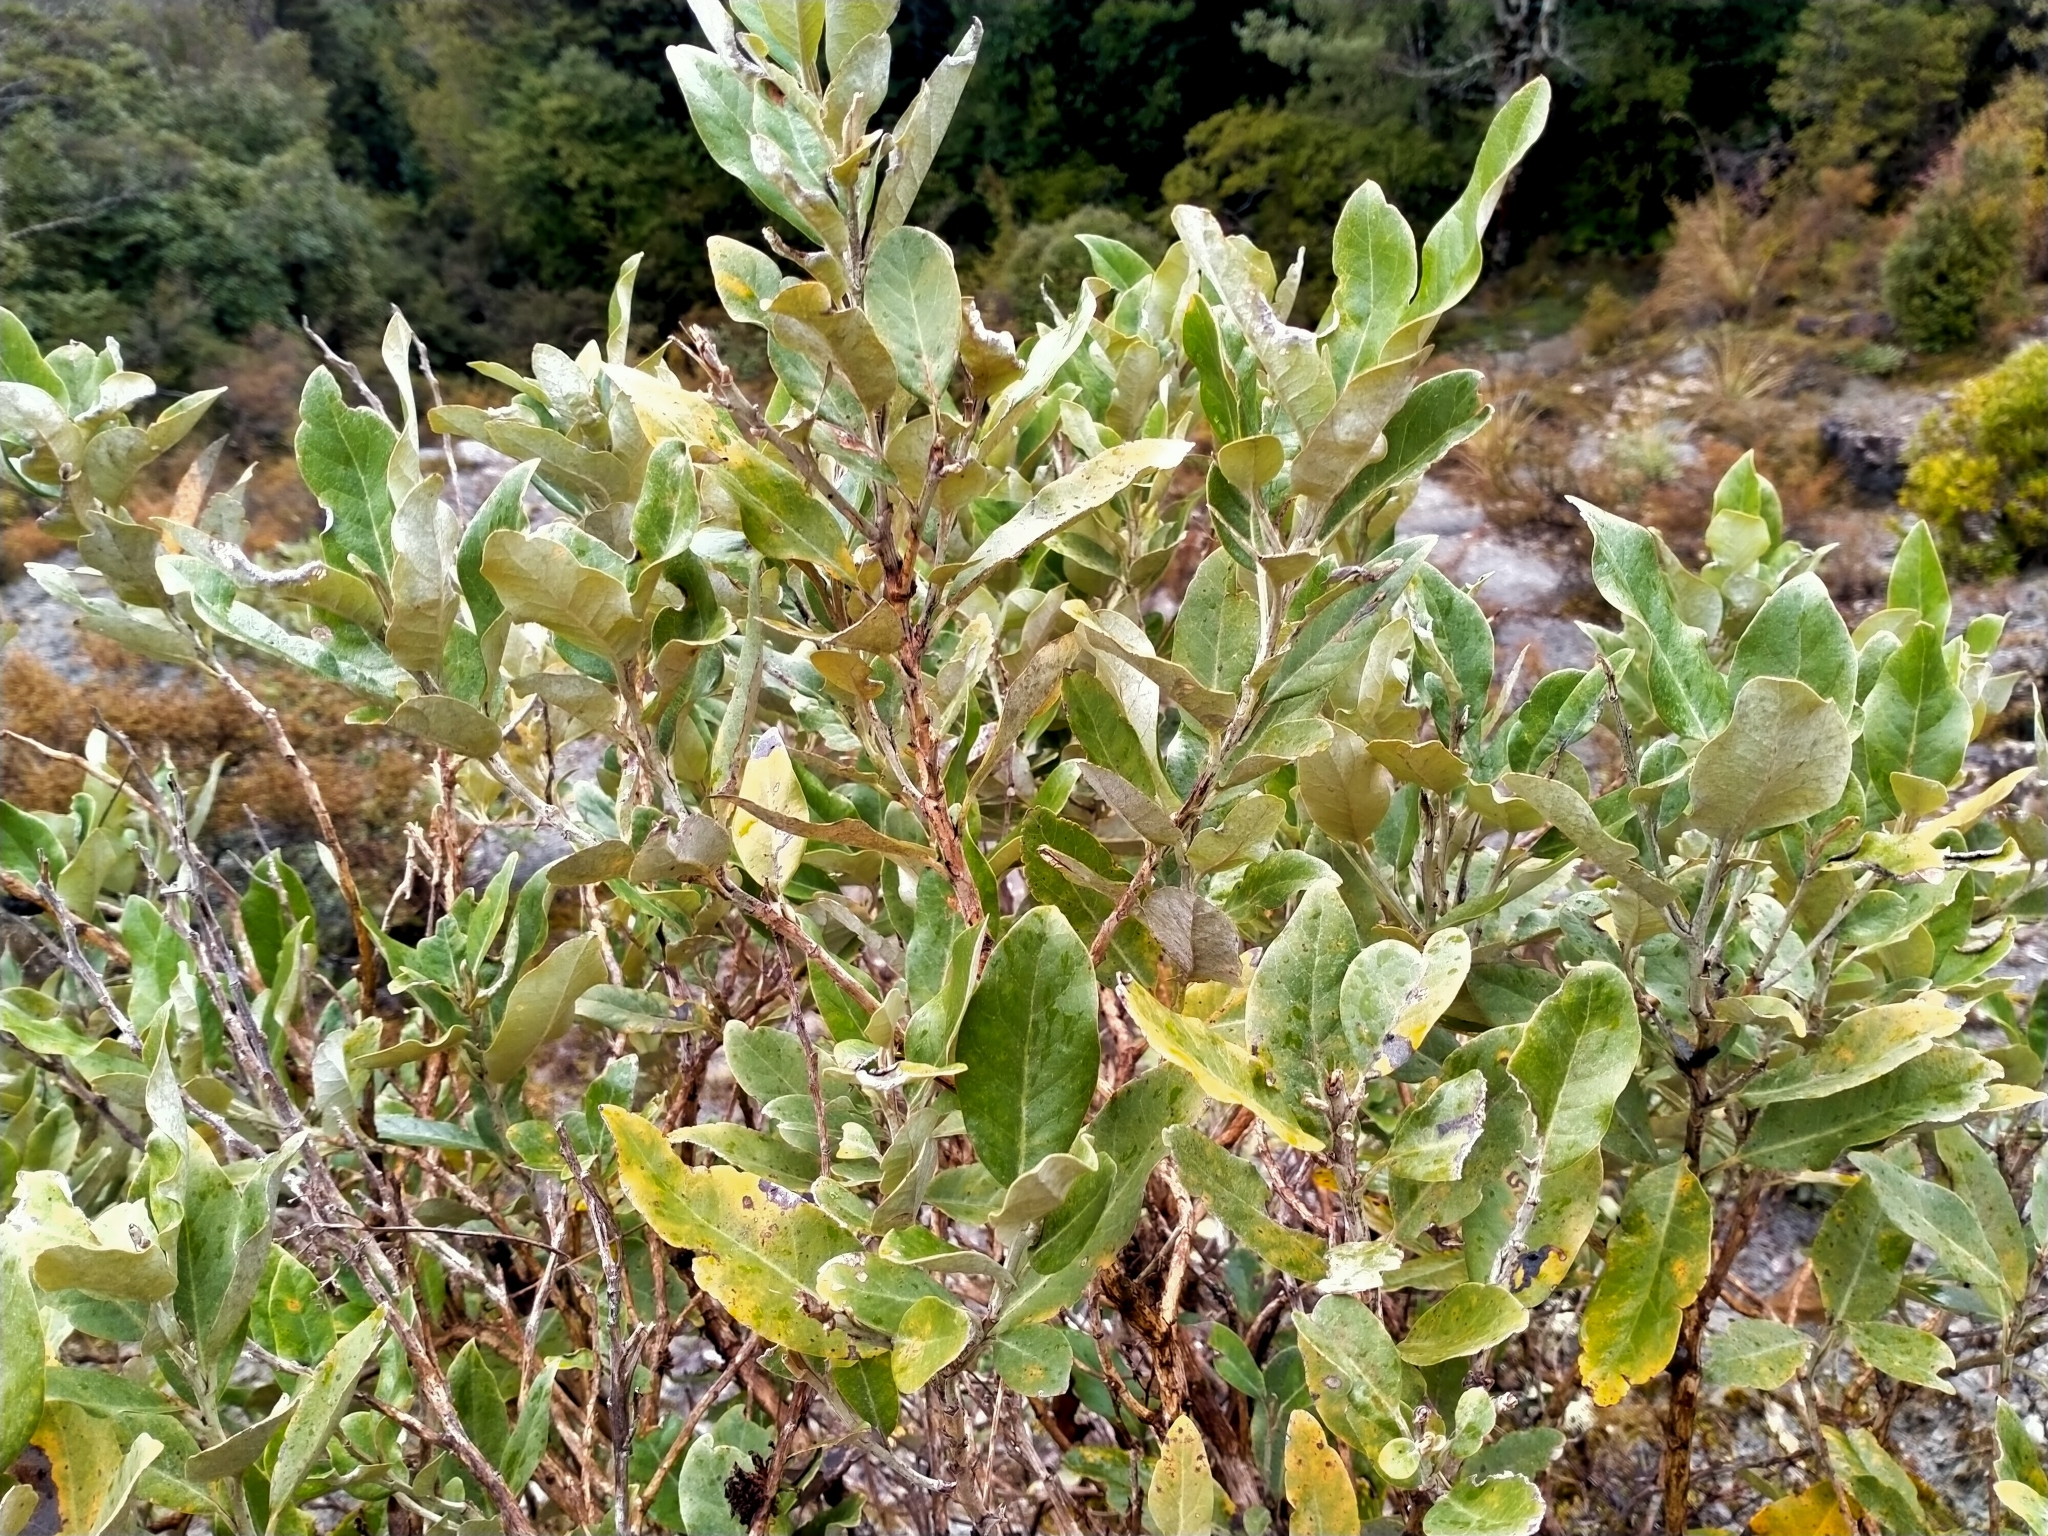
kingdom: Plantae
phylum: Tracheophyta
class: Magnoliopsida
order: Asterales
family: Asteraceae
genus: Olearia
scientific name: Olearia avicenniifolia
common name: Mangrove-leaf daisybush
